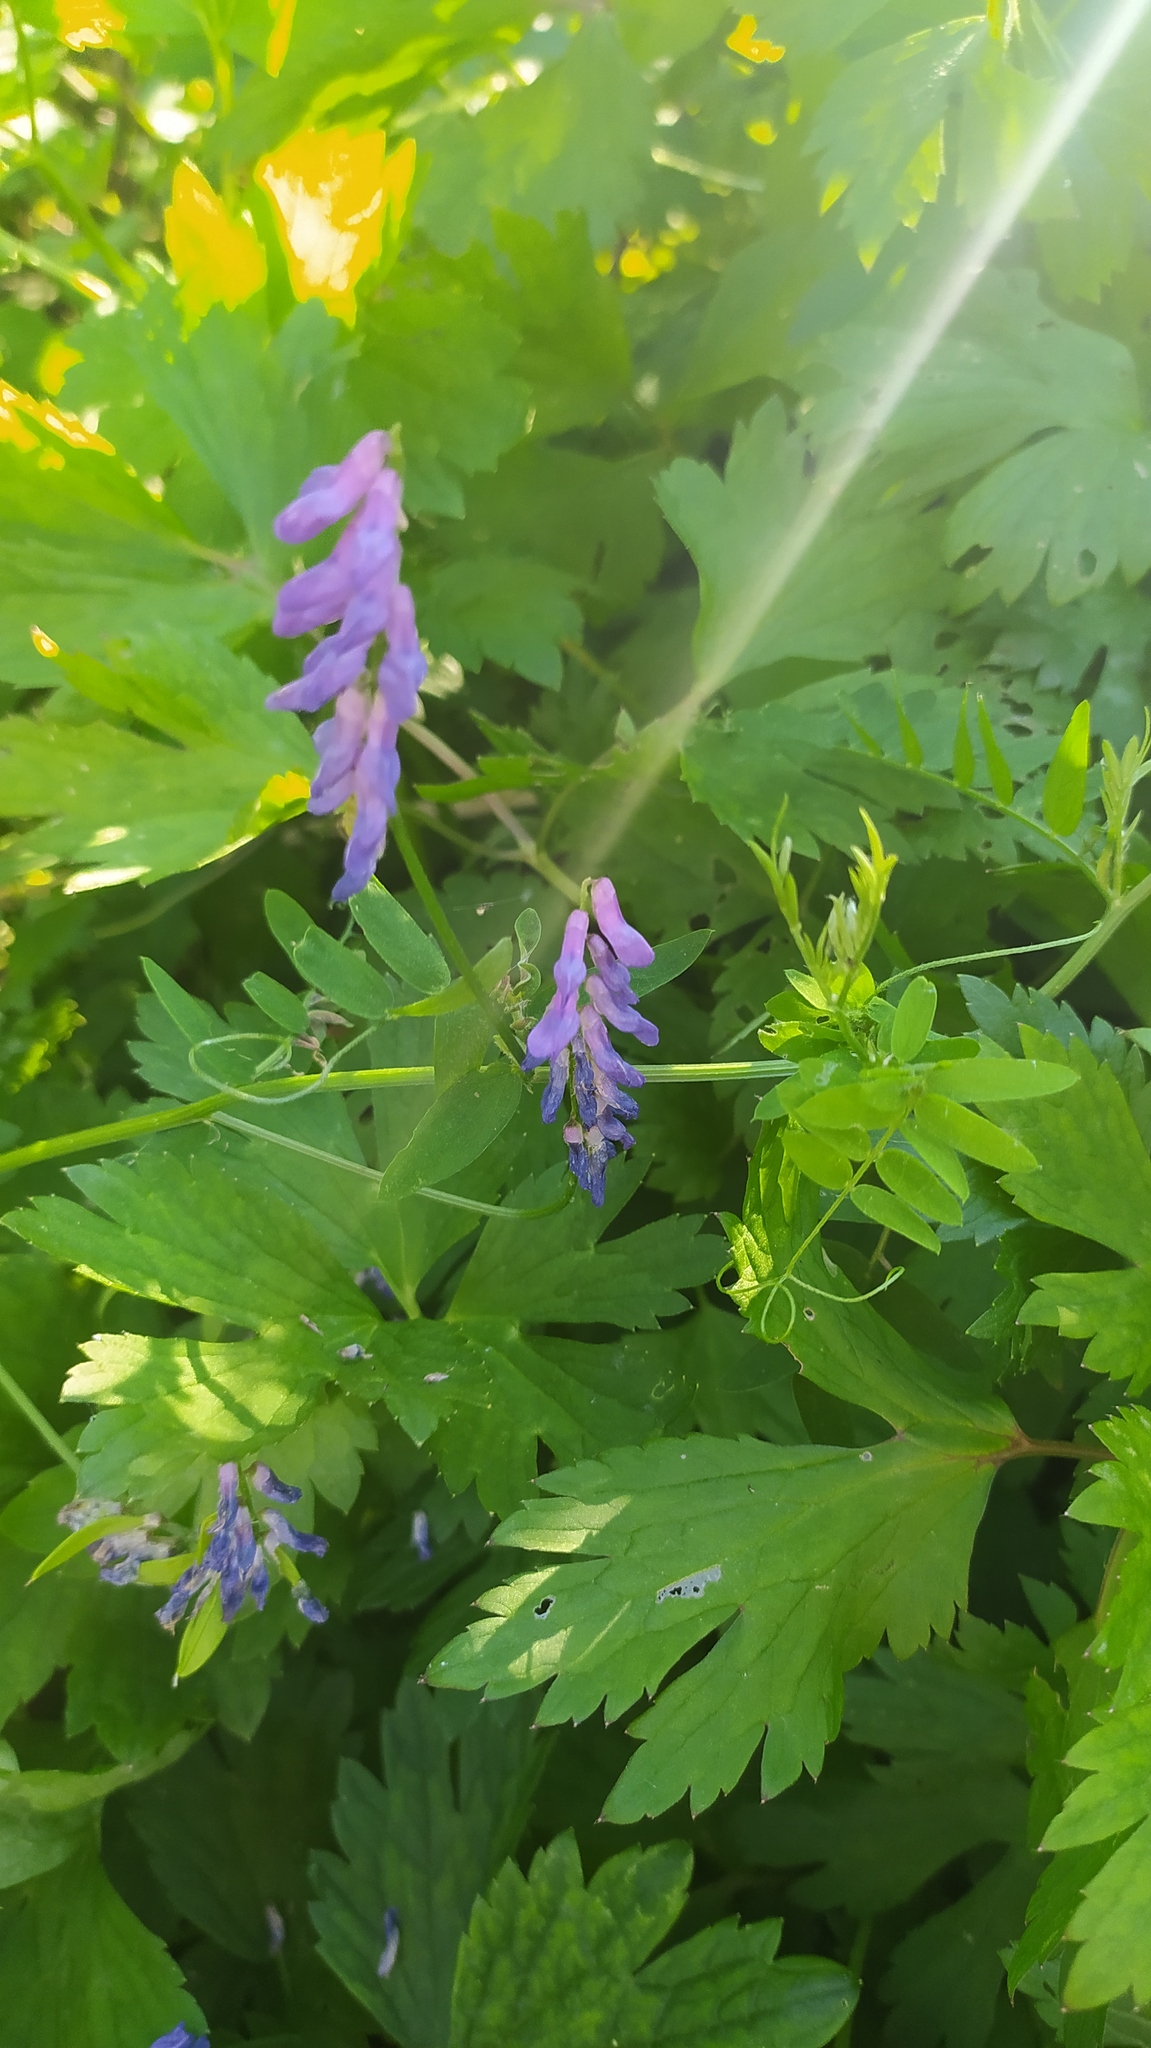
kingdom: Plantae
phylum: Tracheophyta
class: Magnoliopsida
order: Fabales
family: Fabaceae
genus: Vicia
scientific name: Vicia cracca
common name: Bird vetch
